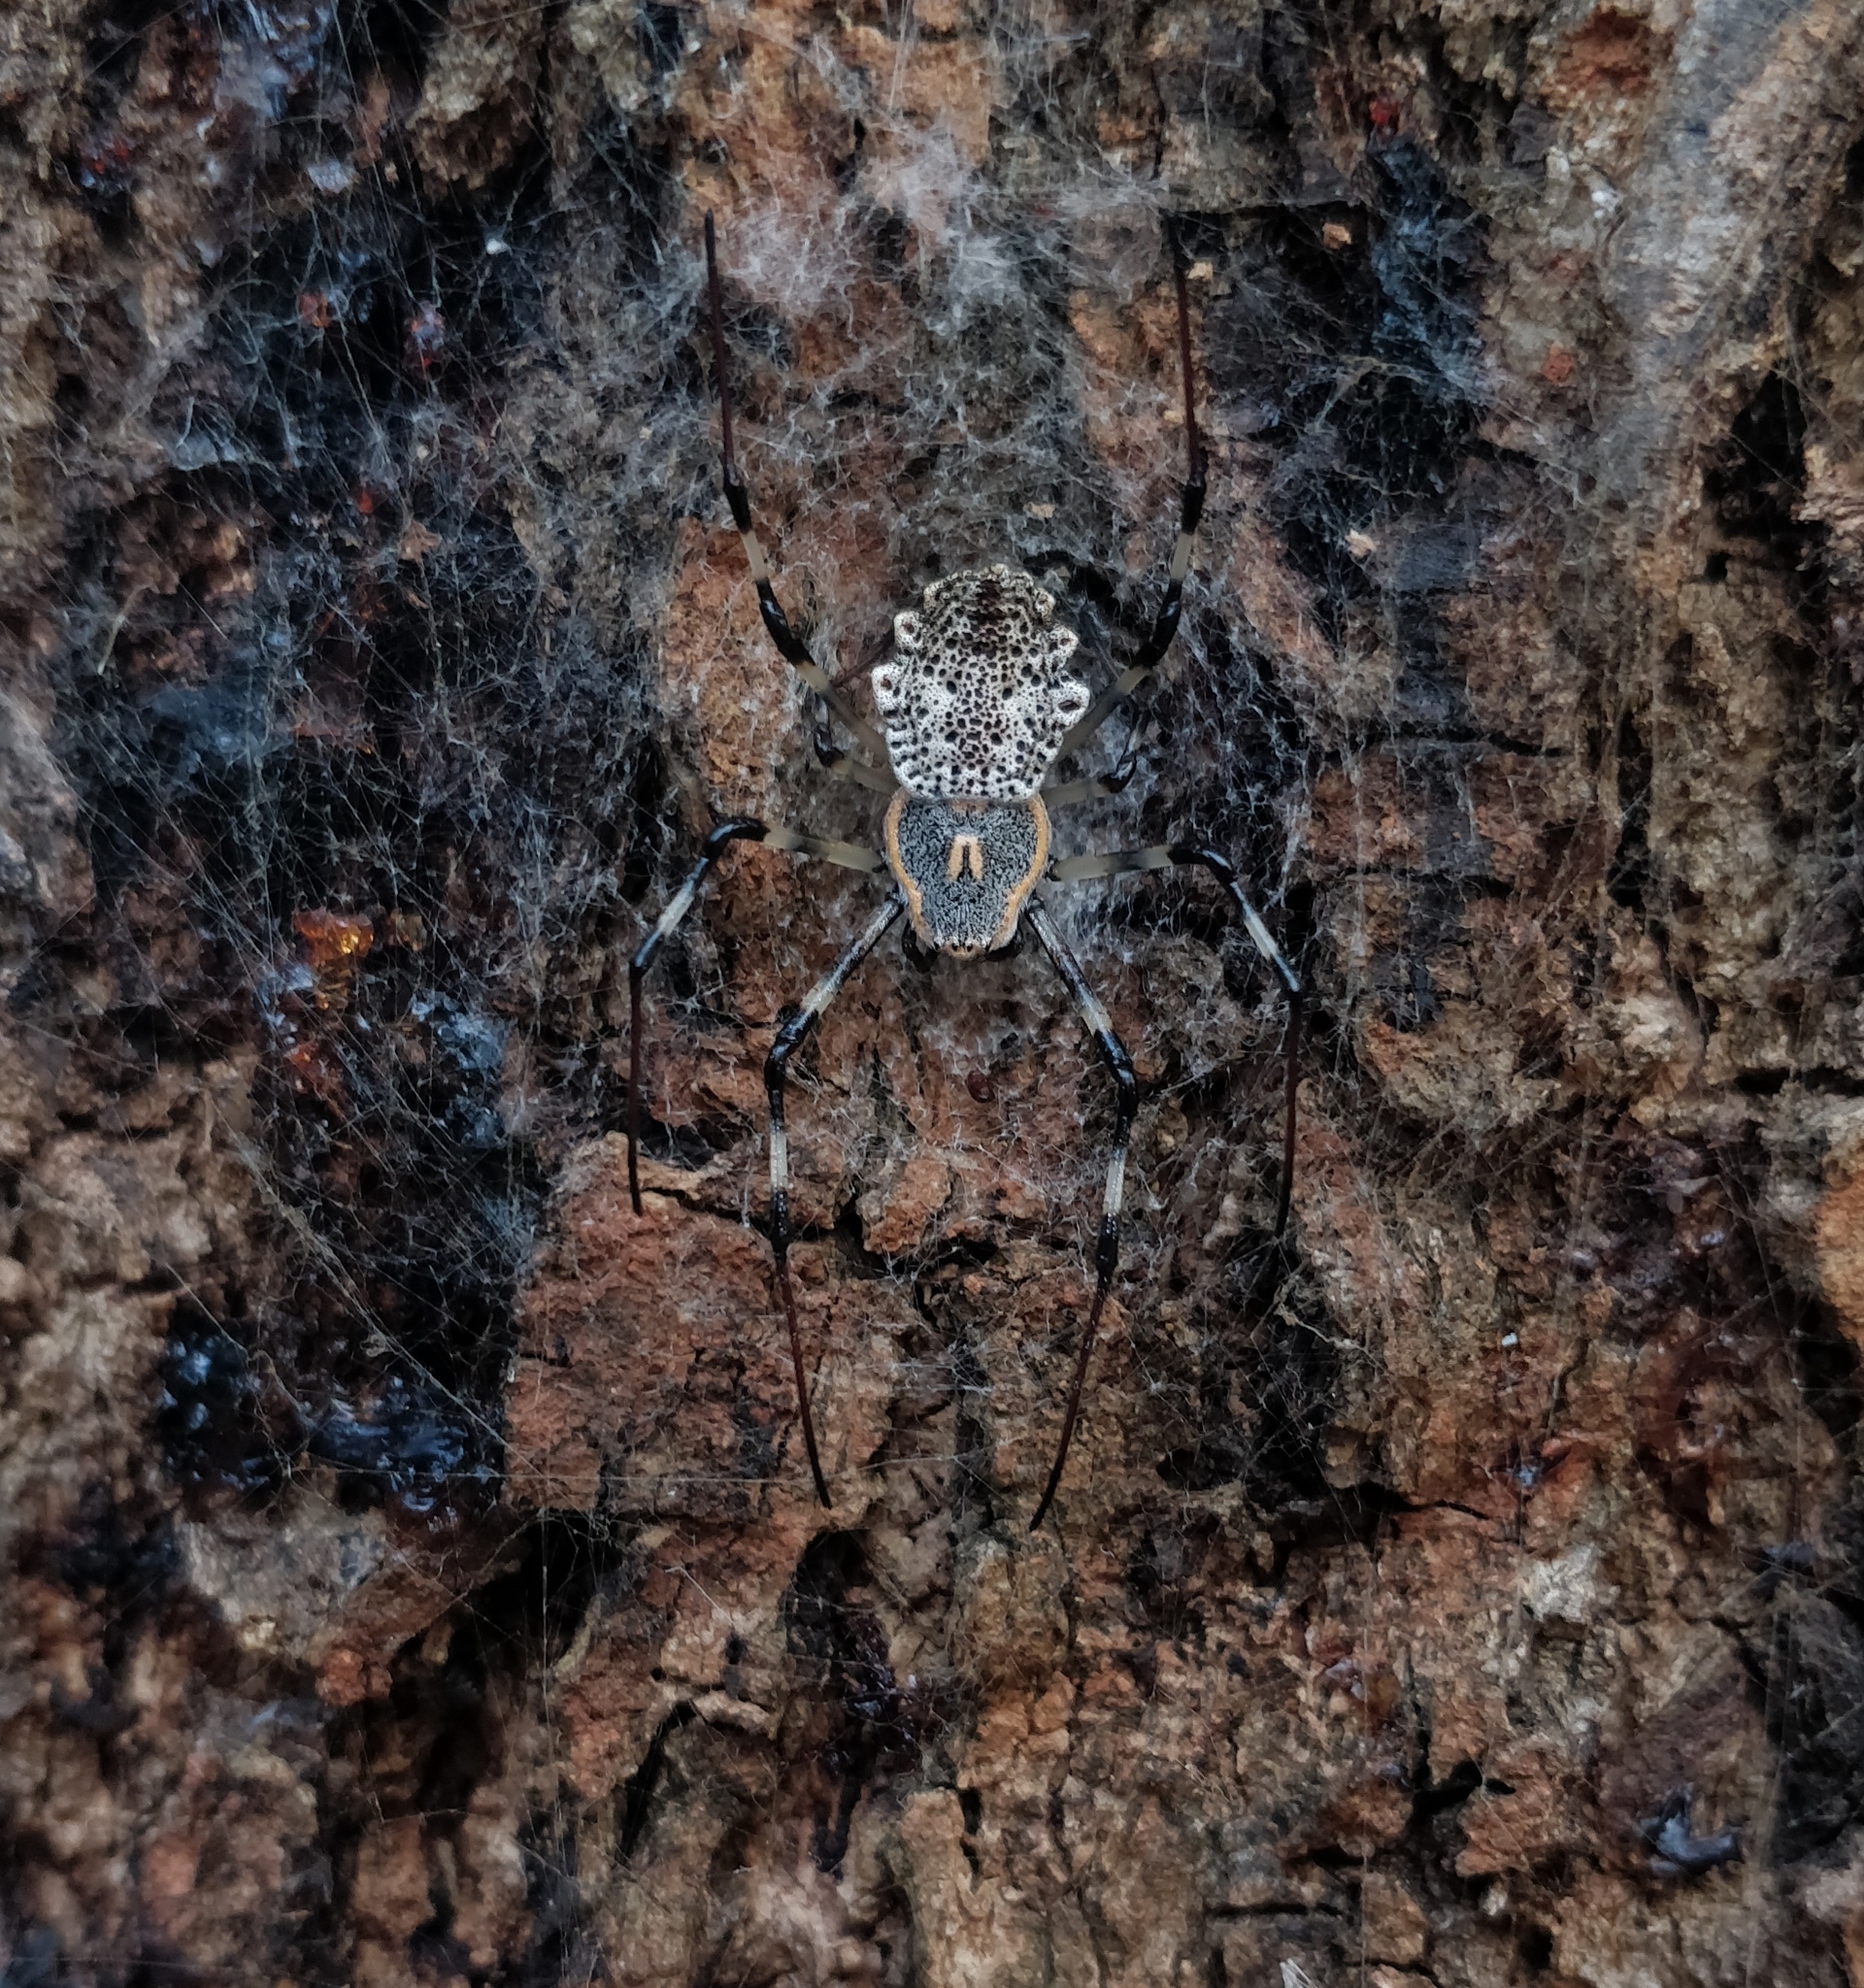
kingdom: Animalia
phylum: Arthropoda
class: Arachnida
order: Araneae
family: Araneidae
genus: Herennia
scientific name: Herennia multipuncta
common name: Spotted coin spider
